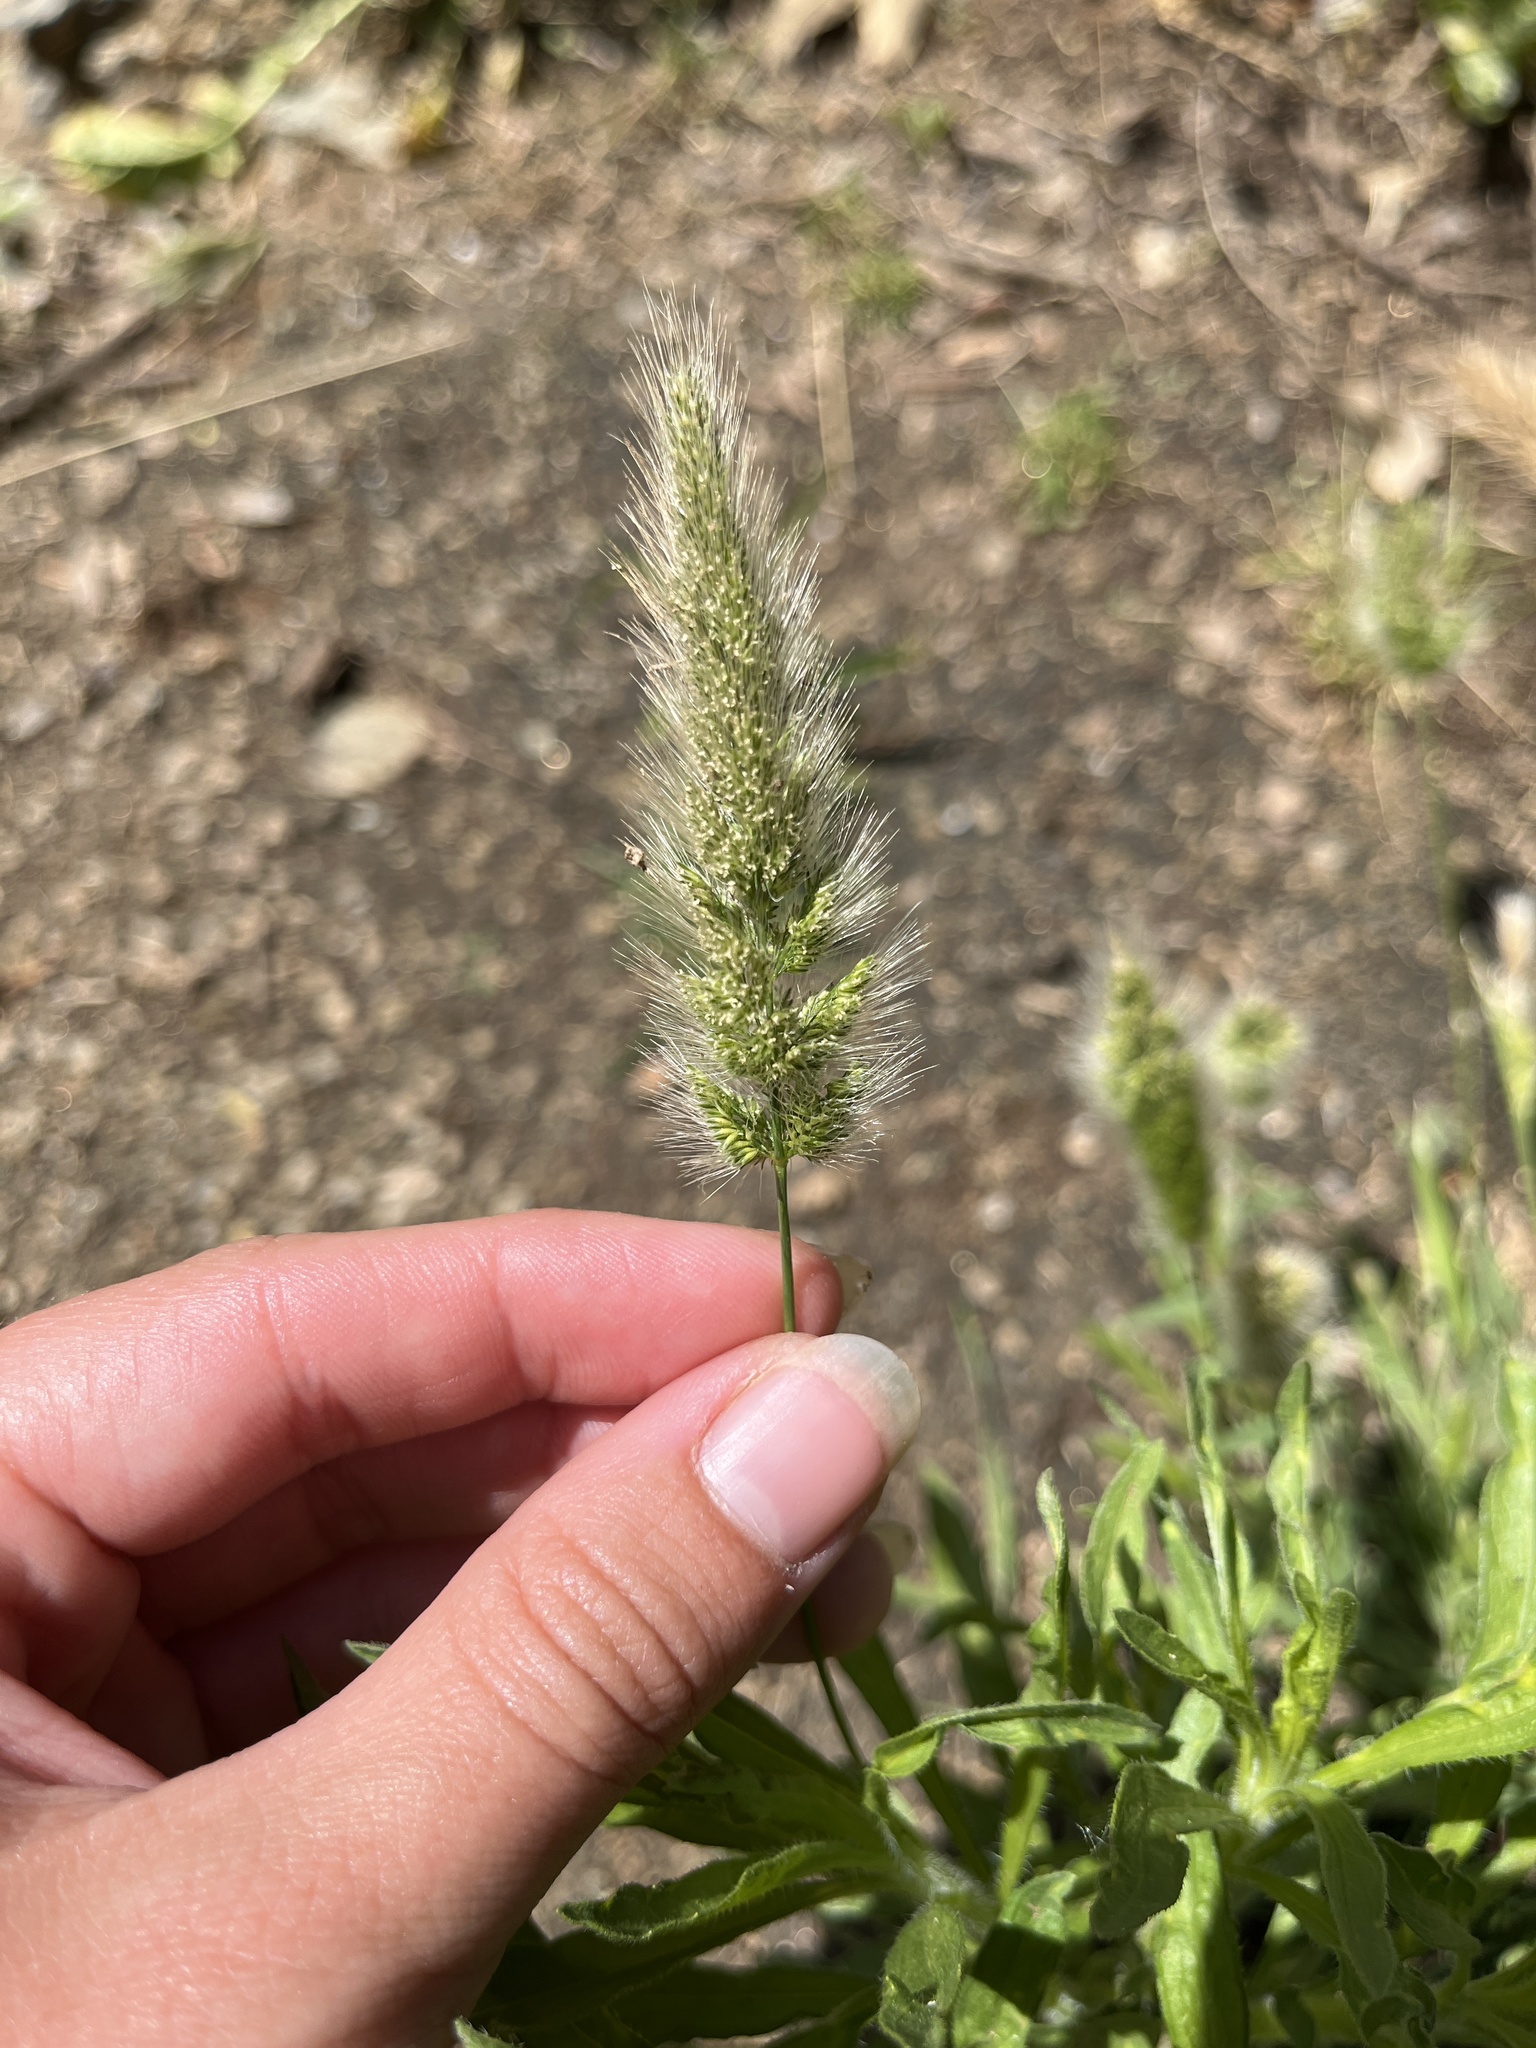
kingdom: Plantae
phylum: Tracheophyta
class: Liliopsida
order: Poales
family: Poaceae
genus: Polypogon
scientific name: Polypogon monspeliensis
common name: Annual rabbitsfoot grass
